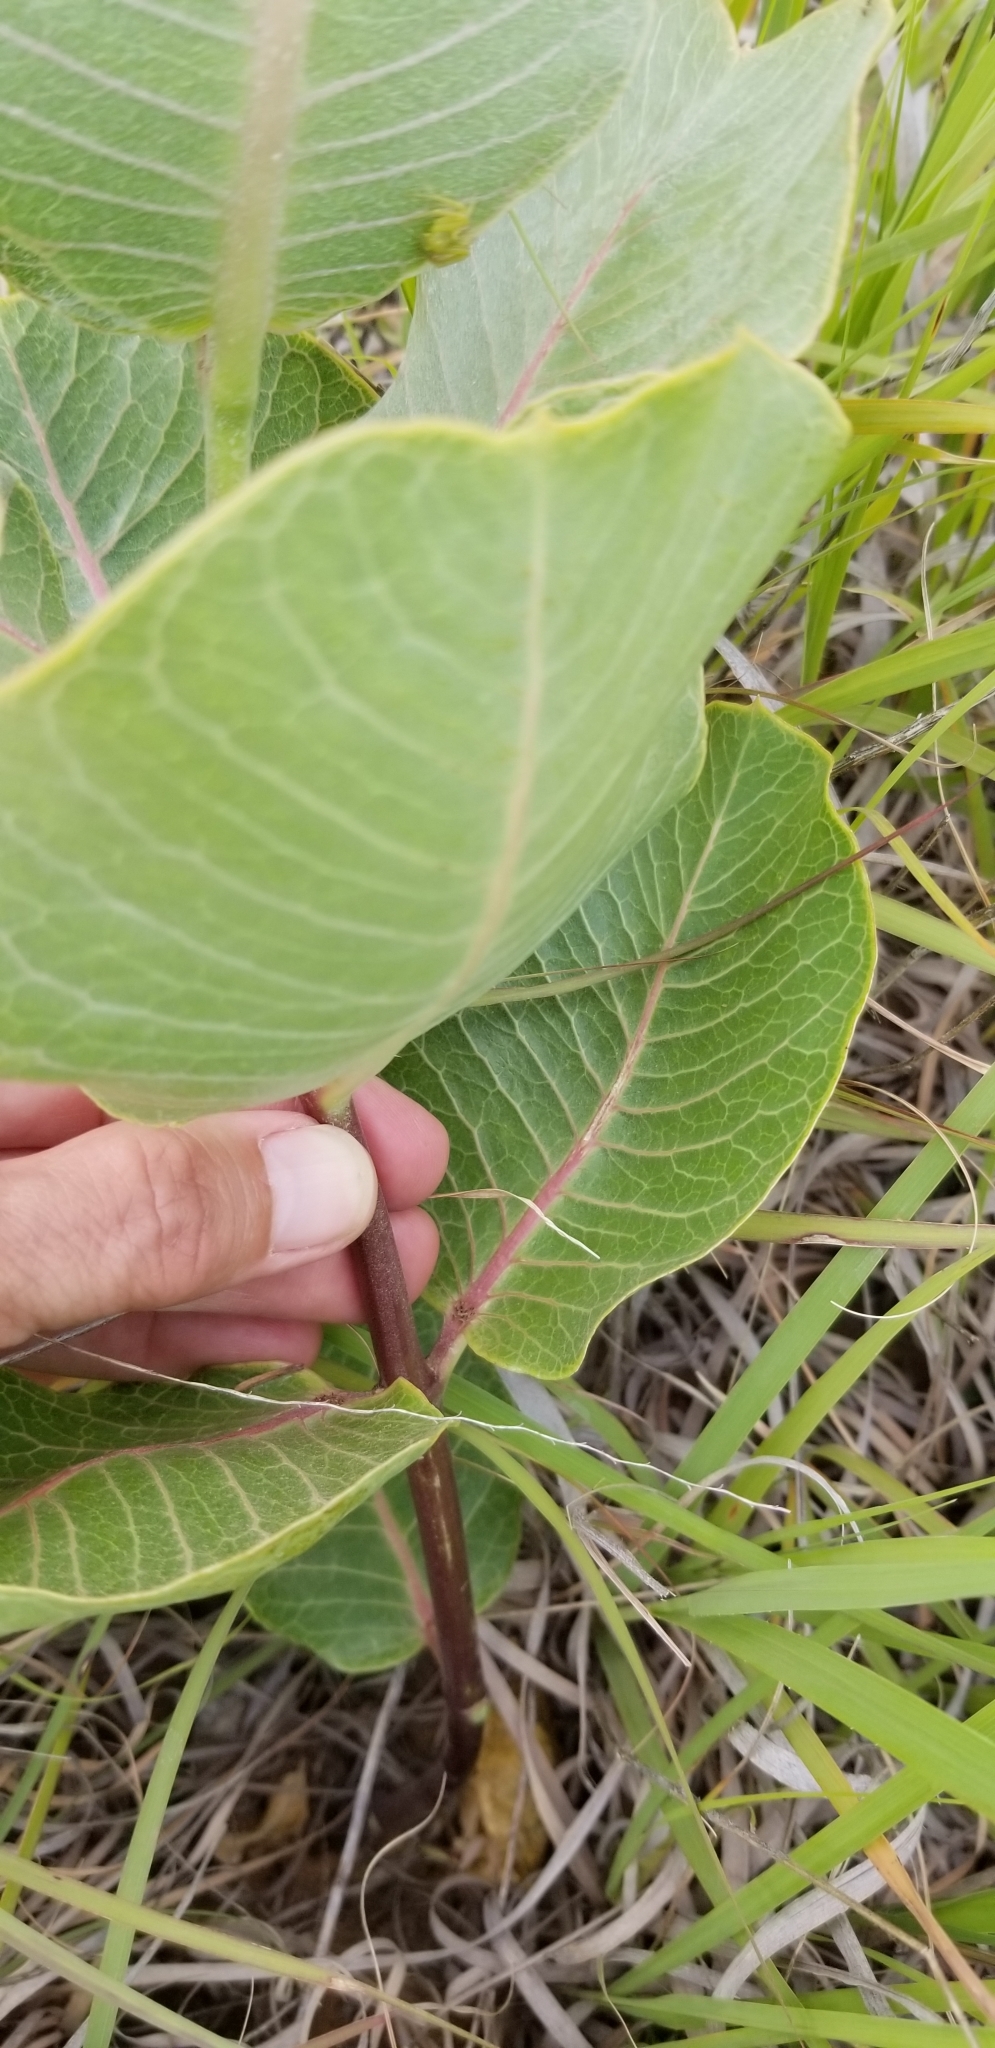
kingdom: Plantae
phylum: Tracheophyta
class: Magnoliopsida
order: Gentianales
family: Apocynaceae
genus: Asclepias
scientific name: Asclepias latifolia
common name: Broadleaf milkweed
